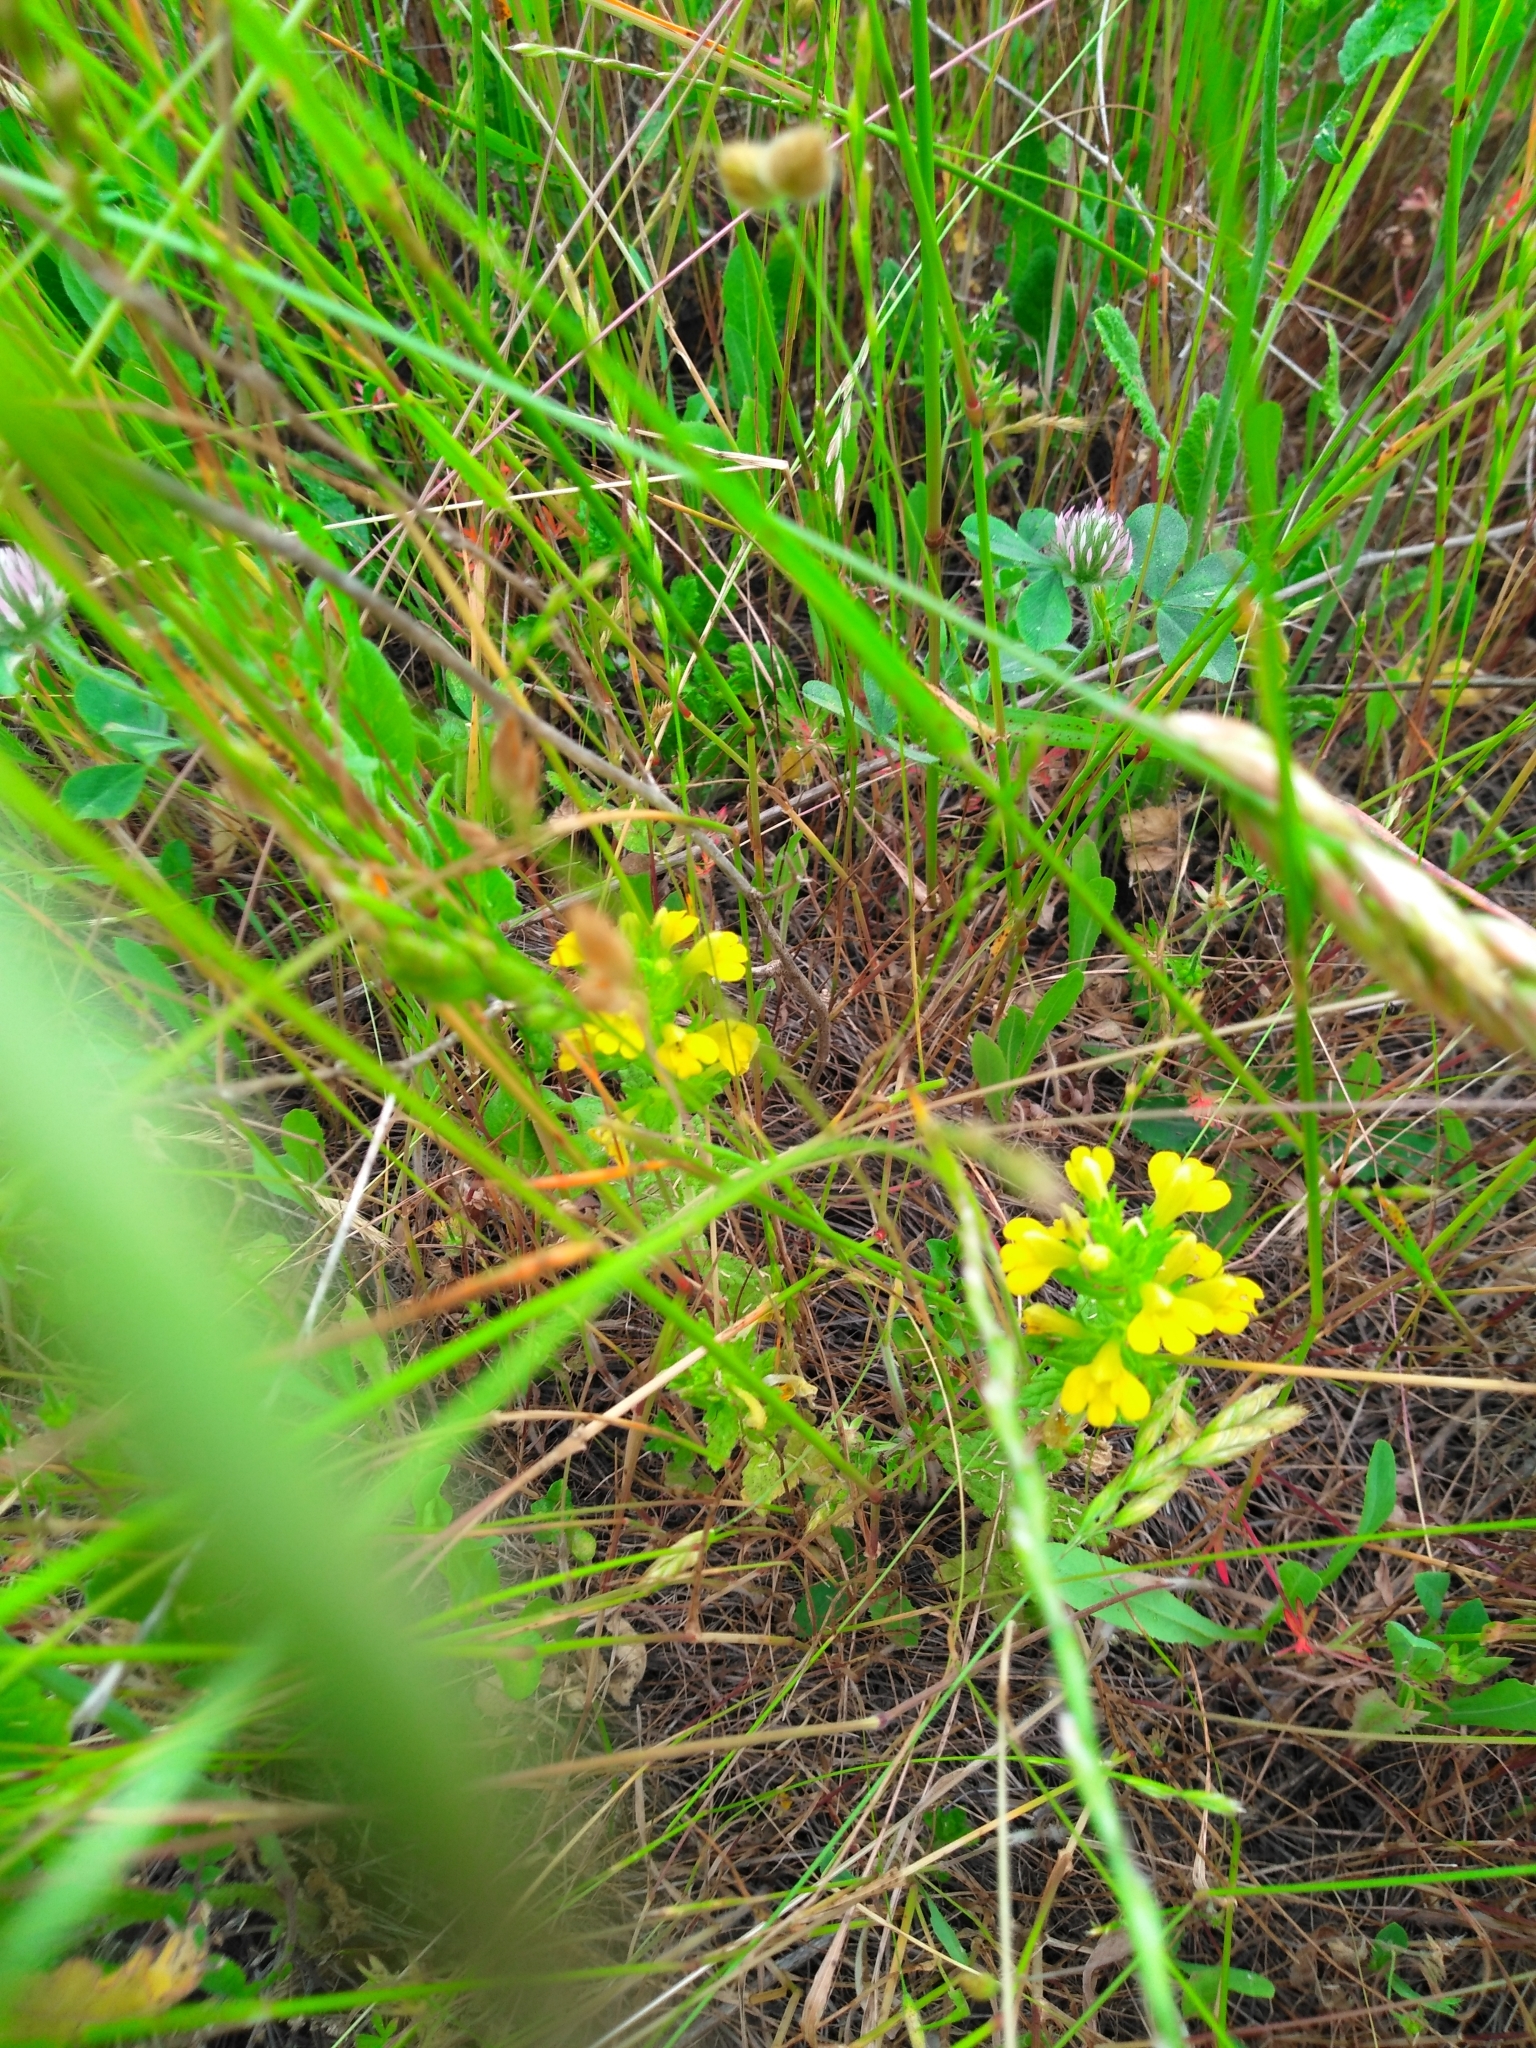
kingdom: Plantae
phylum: Tracheophyta
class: Magnoliopsida
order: Lamiales
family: Orobanchaceae
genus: Bellardia
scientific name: Bellardia viscosa
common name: Sticky parentucellia
